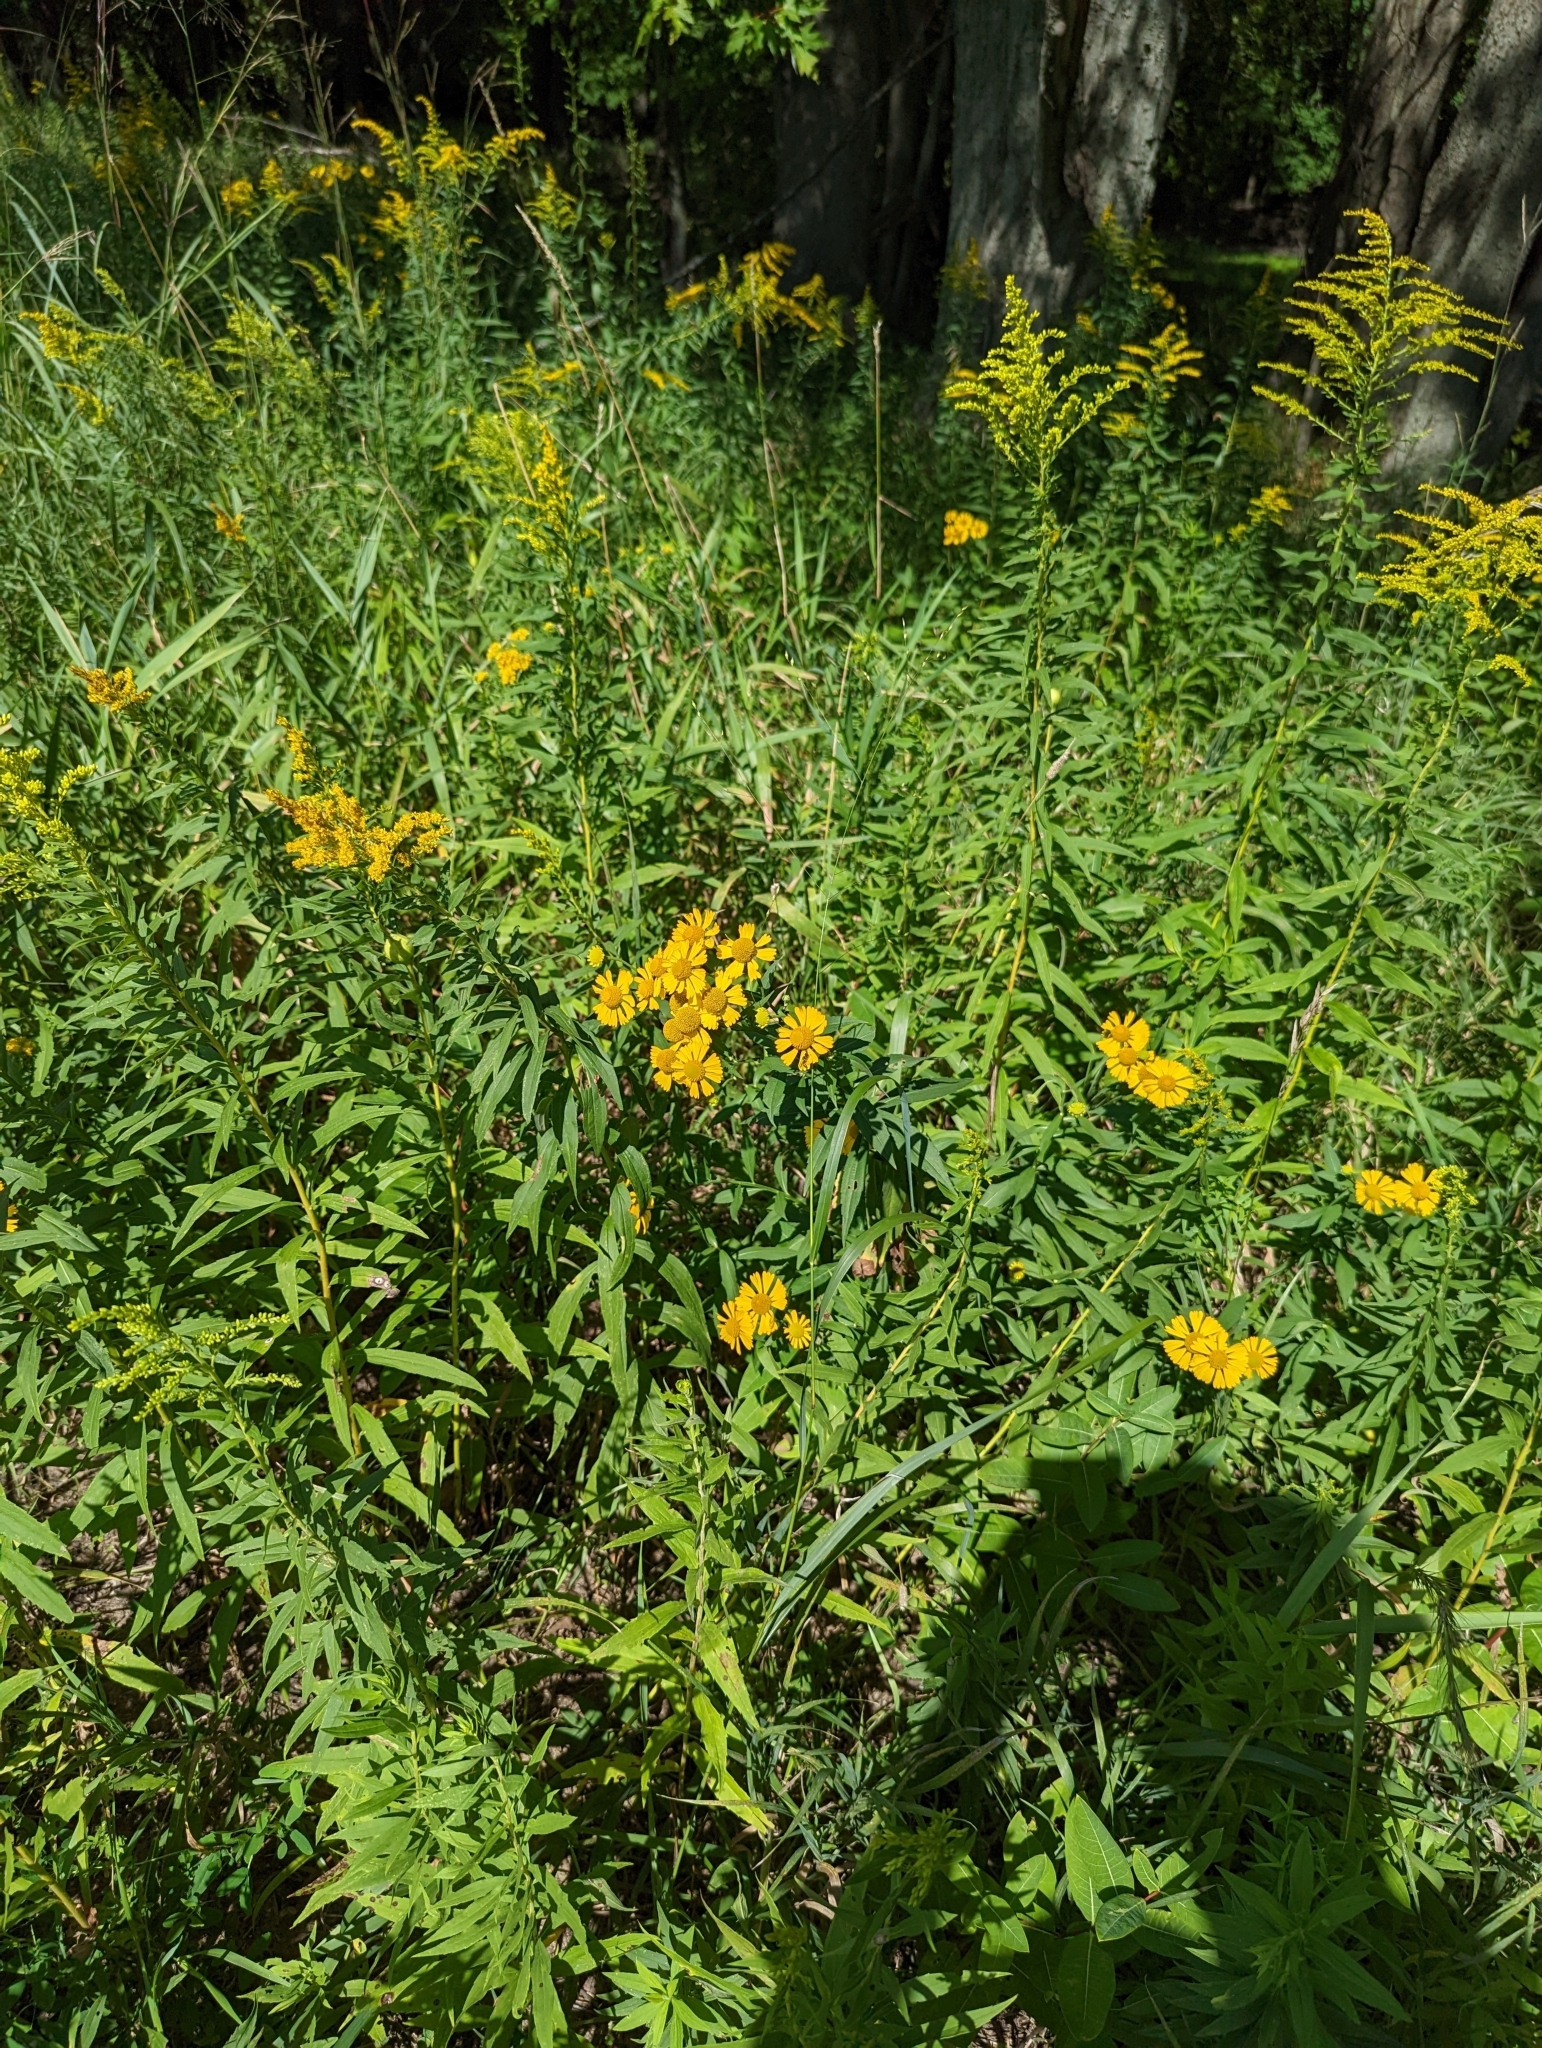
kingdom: Plantae
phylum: Tracheophyta
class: Magnoliopsida
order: Asterales
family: Asteraceae
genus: Helenium
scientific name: Helenium autumnale
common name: Sneezeweed
